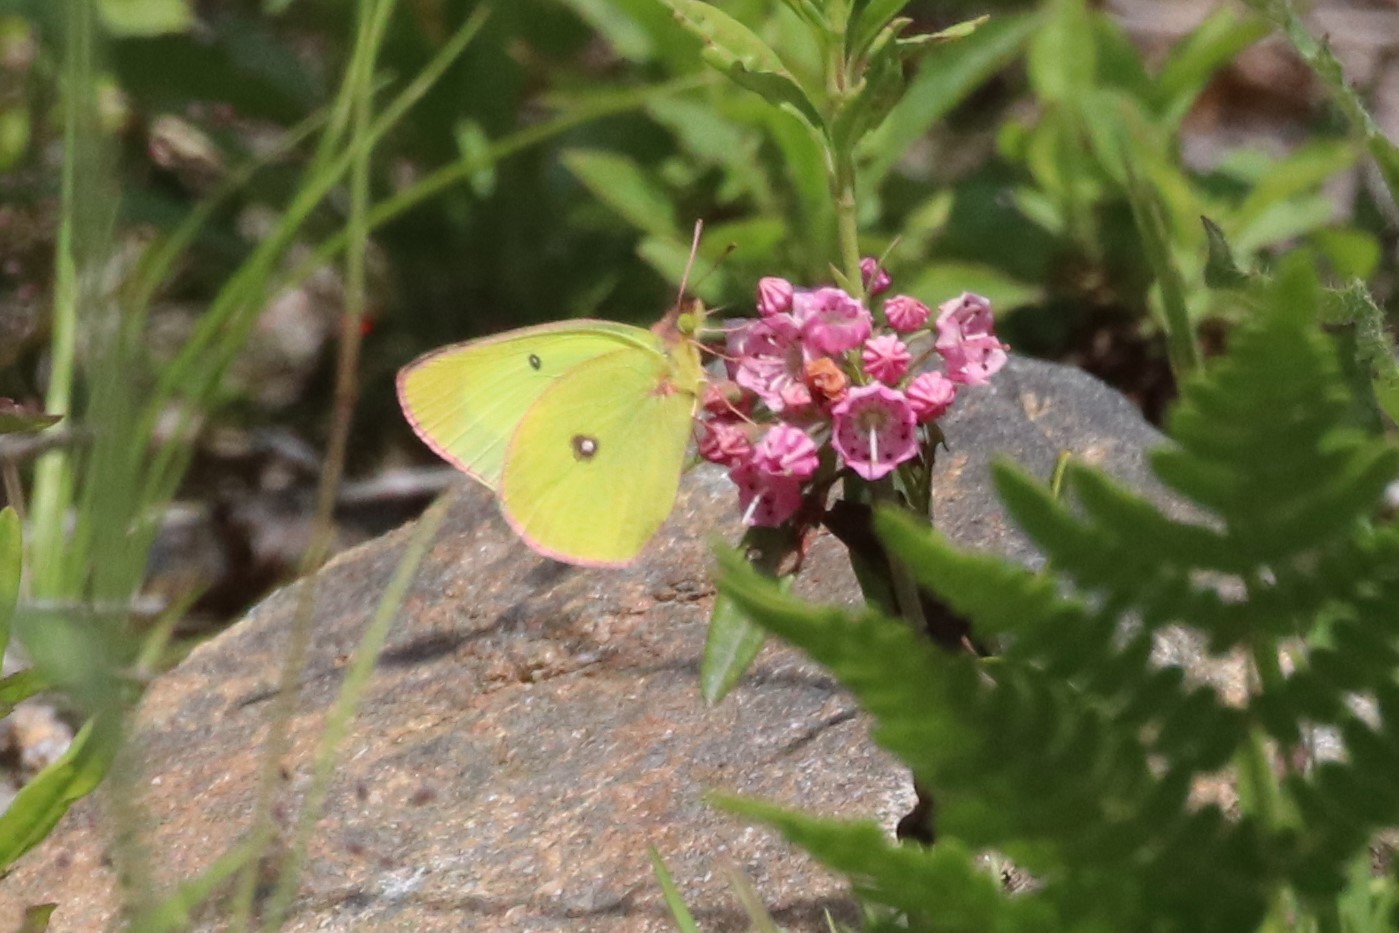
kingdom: Animalia
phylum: Arthropoda
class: Insecta
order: Lepidoptera
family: Pieridae
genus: Colias
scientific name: Colias interior
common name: Pink-edged sulphur
